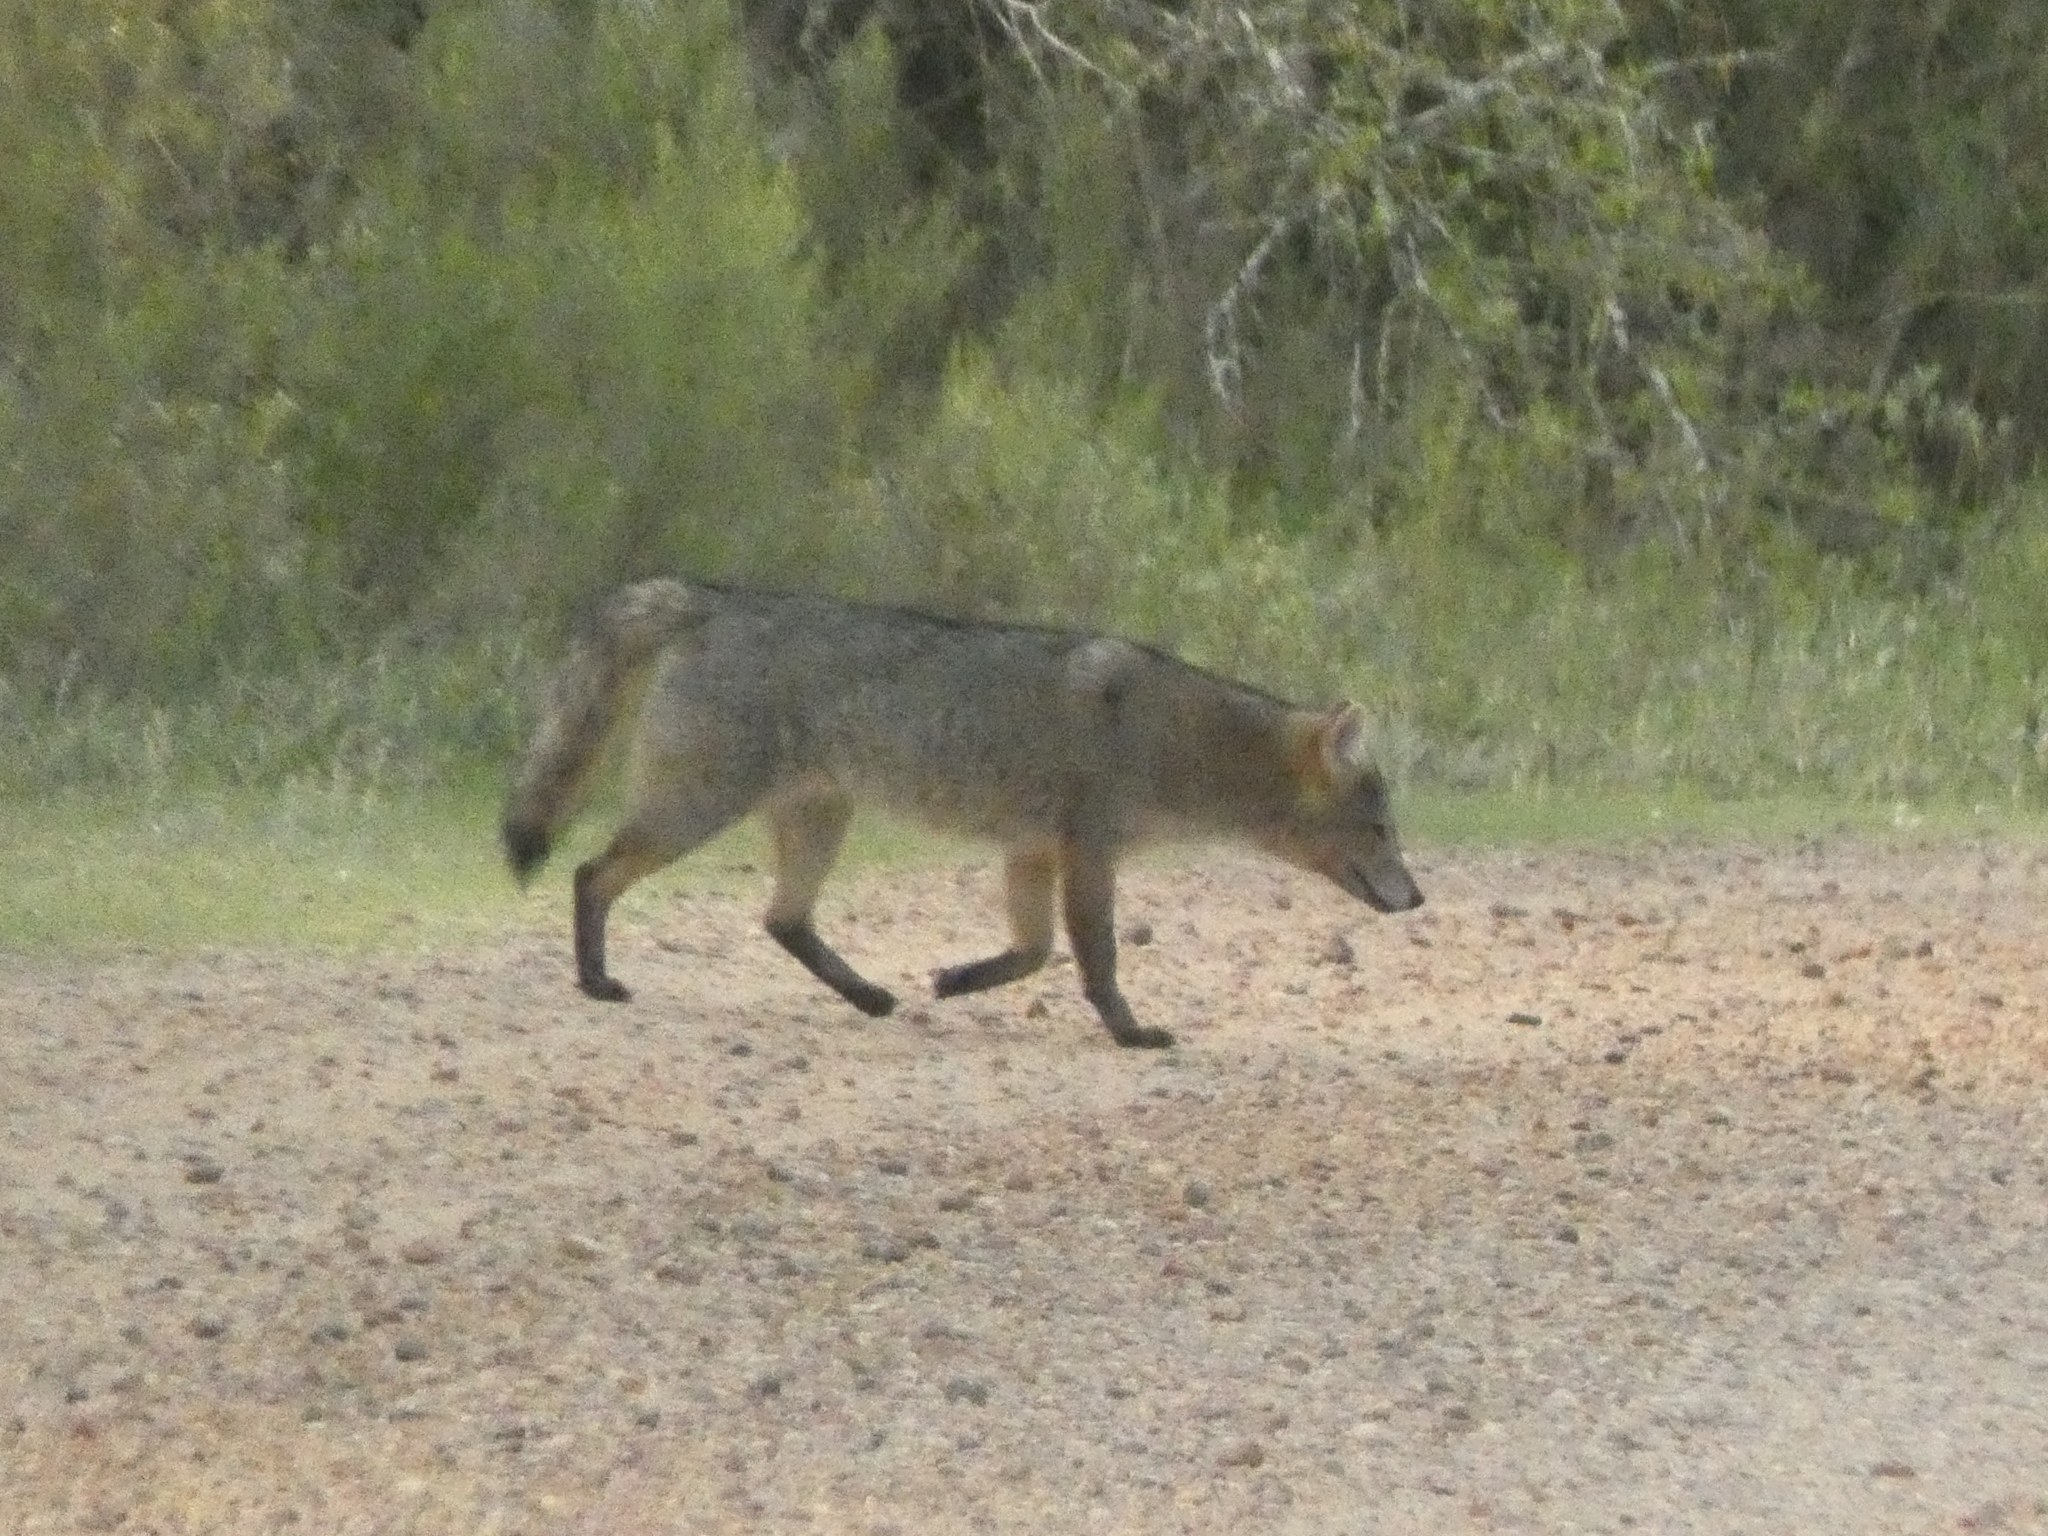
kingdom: Animalia
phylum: Chordata
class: Mammalia
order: Carnivora
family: Canidae
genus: Cerdocyon
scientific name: Cerdocyon thous
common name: Crab-eating fox
